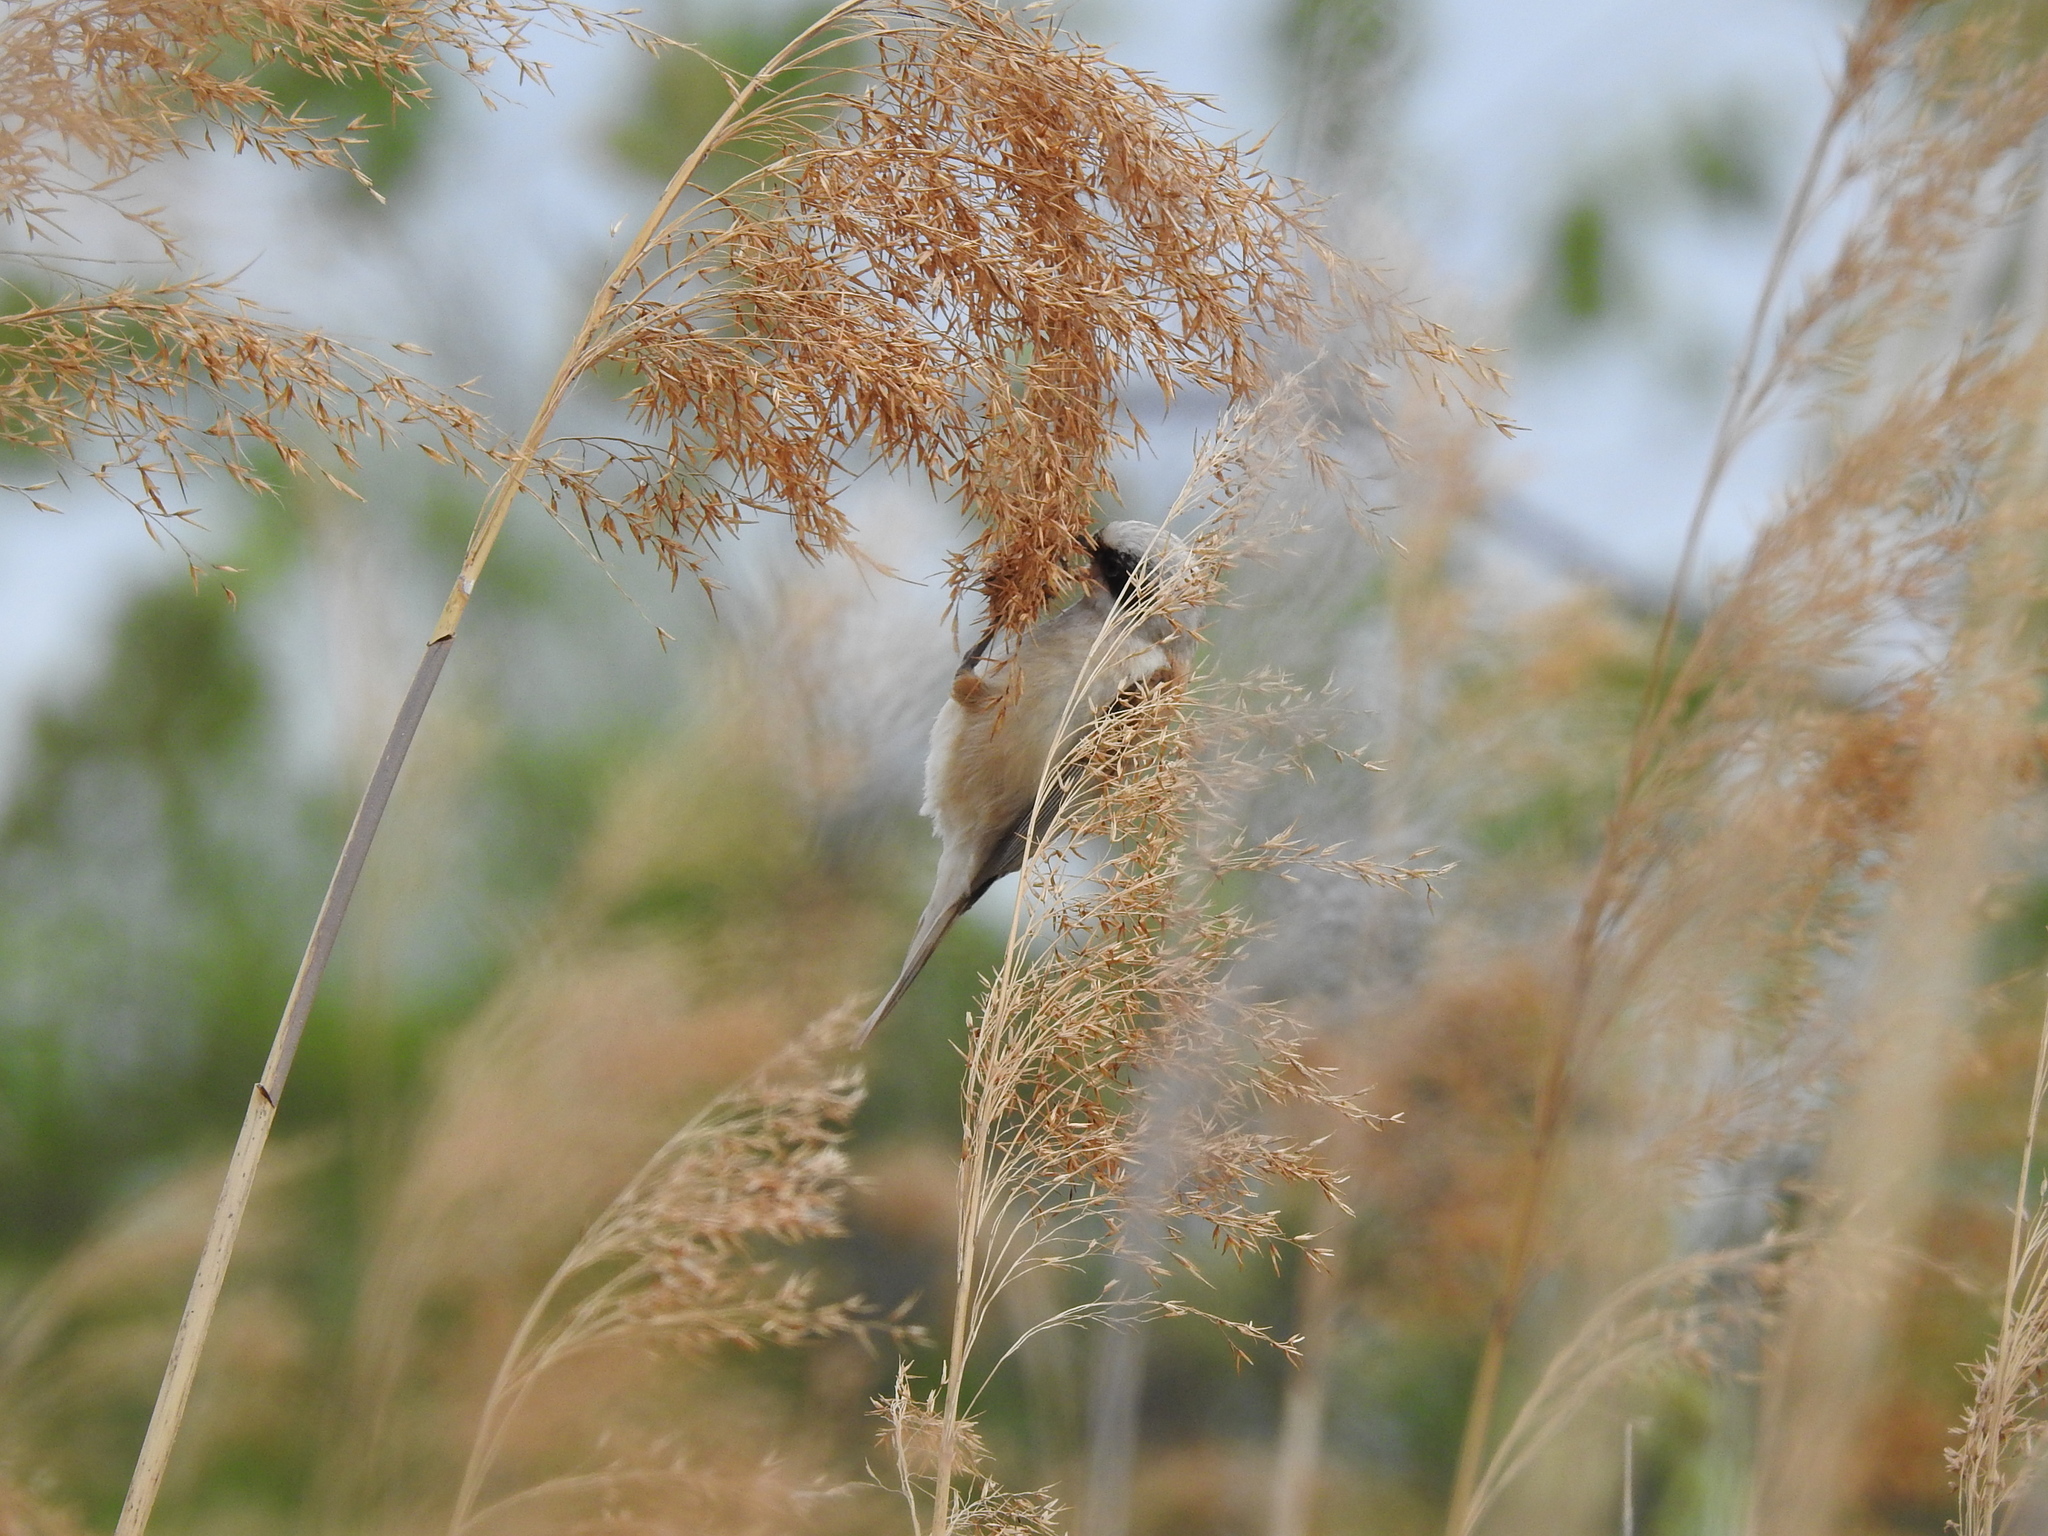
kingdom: Animalia
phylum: Chordata
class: Aves
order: Passeriformes
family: Remizidae
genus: Remiz
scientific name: Remiz pendulinus
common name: Eurasian penduline tit
